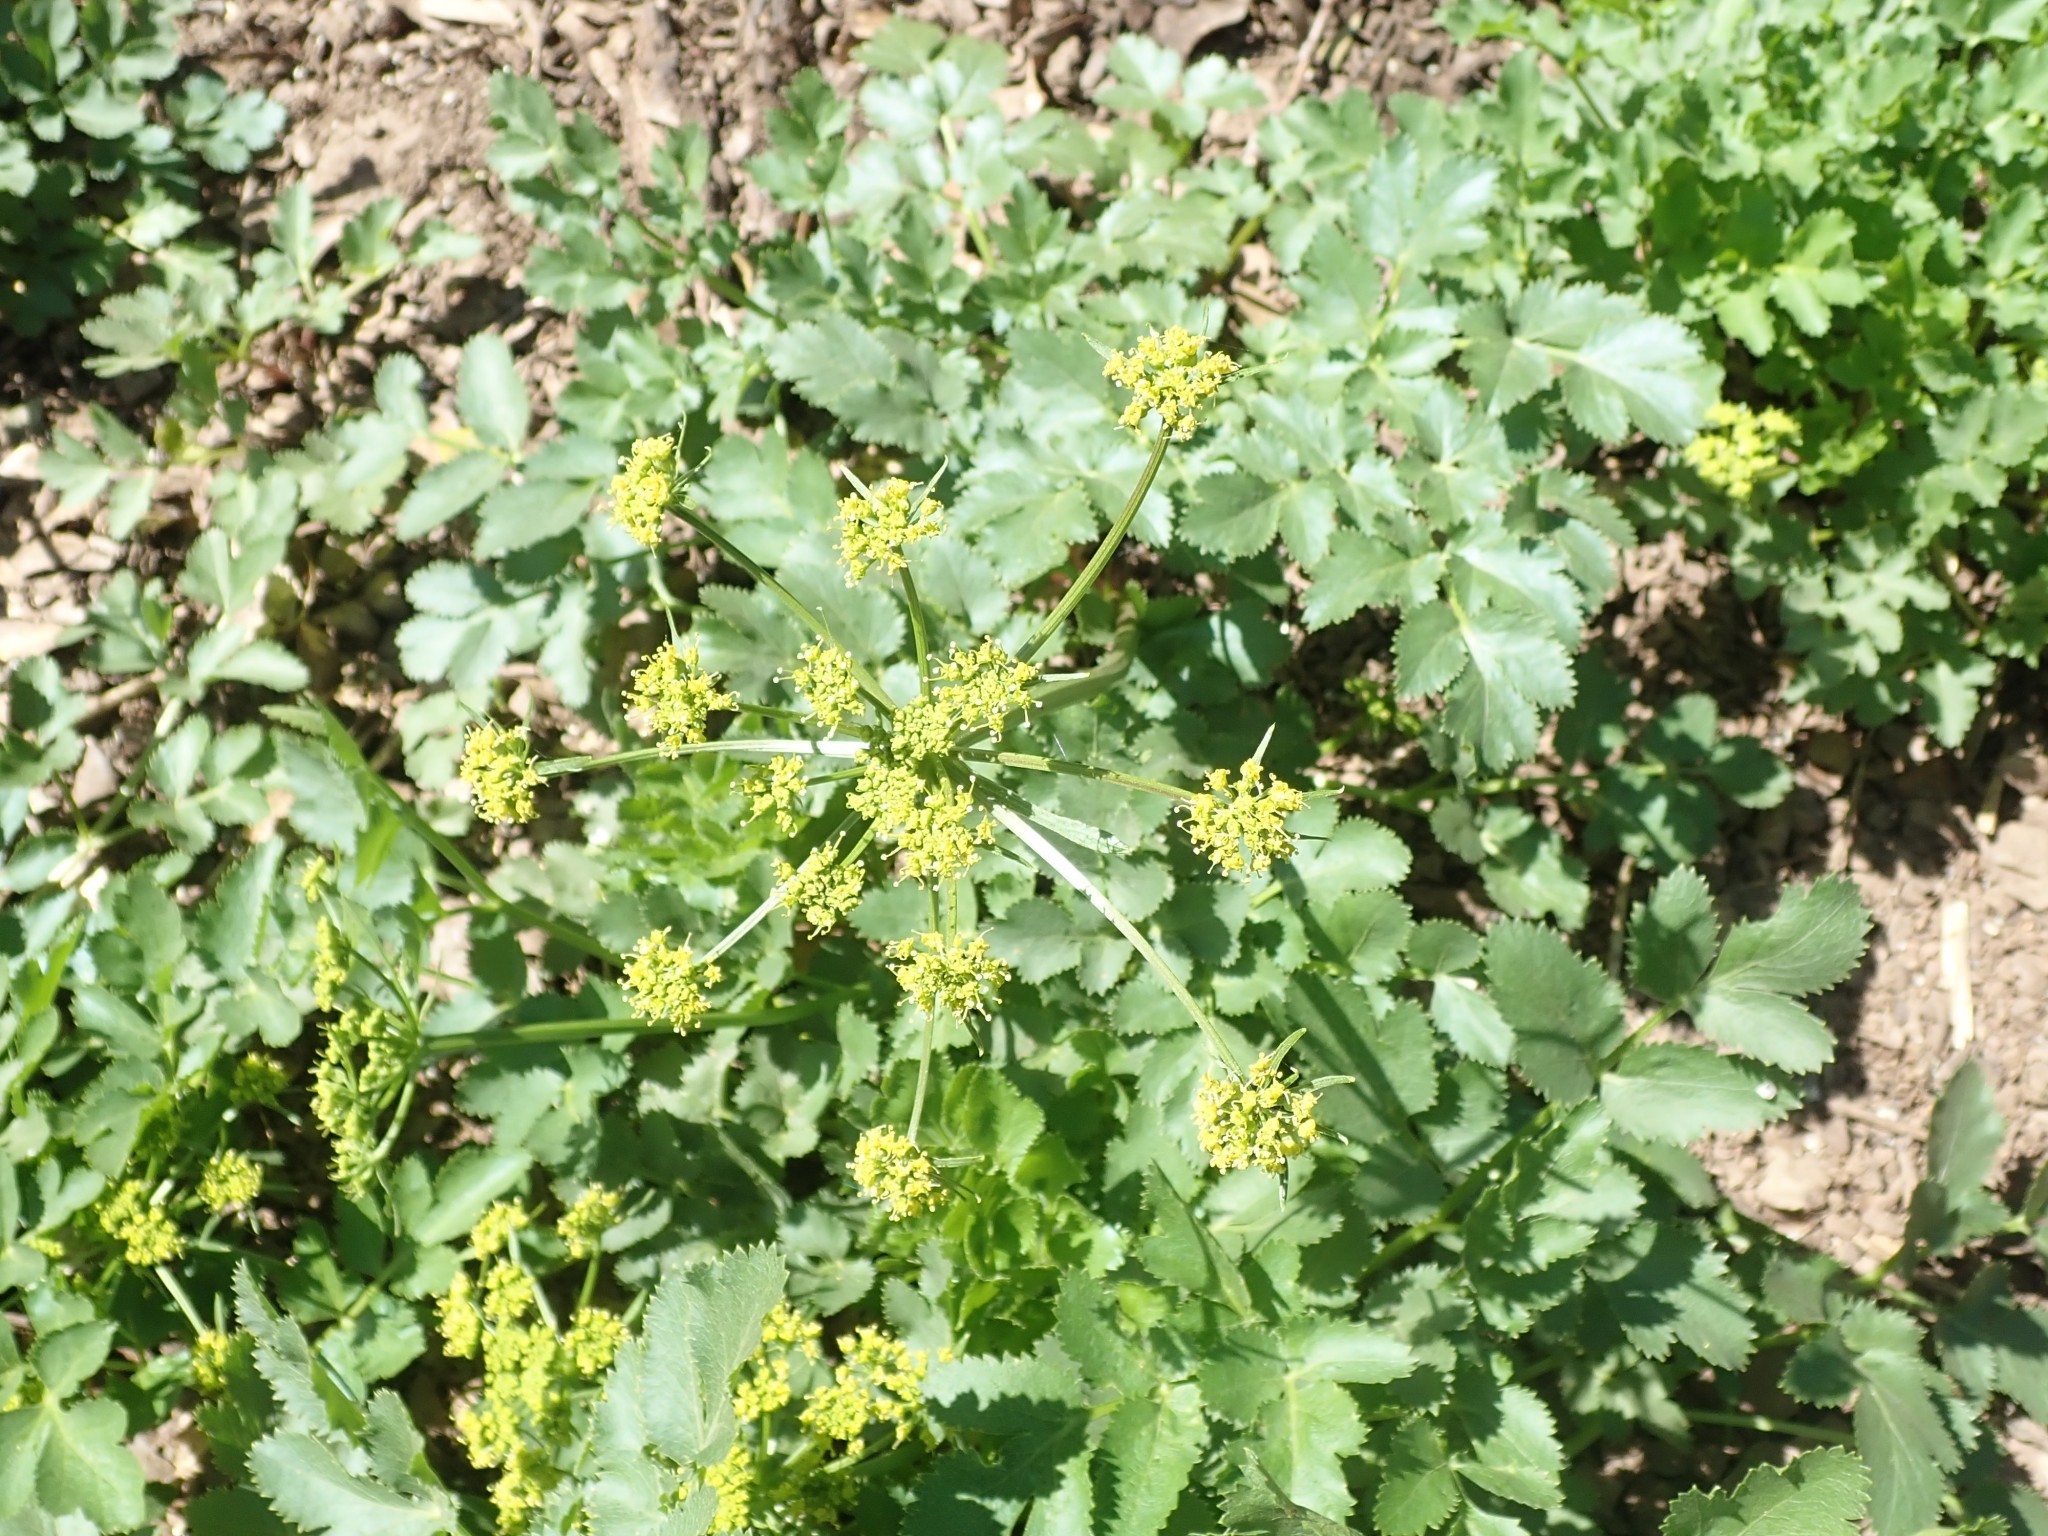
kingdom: Plantae
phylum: Tracheophyta
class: Magnoliopsida
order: Apiales
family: Apiaceae
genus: Tauschia
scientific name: Tauschia hartwegii
